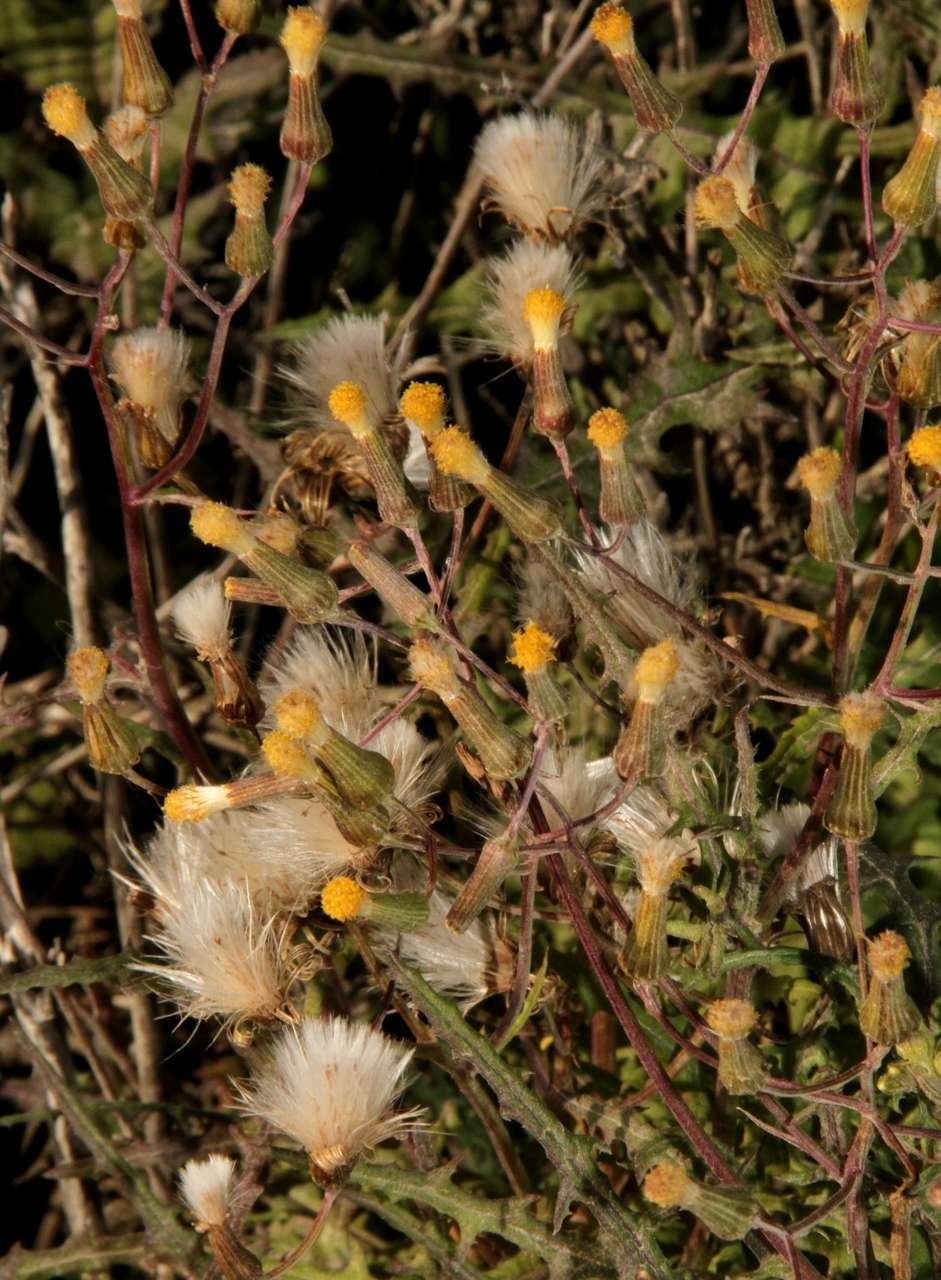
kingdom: Plantae
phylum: Tracheophyta
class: Magnoliopsida
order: Asterales
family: Asteraceae
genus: Senecio
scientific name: Senecio runcinifolius
